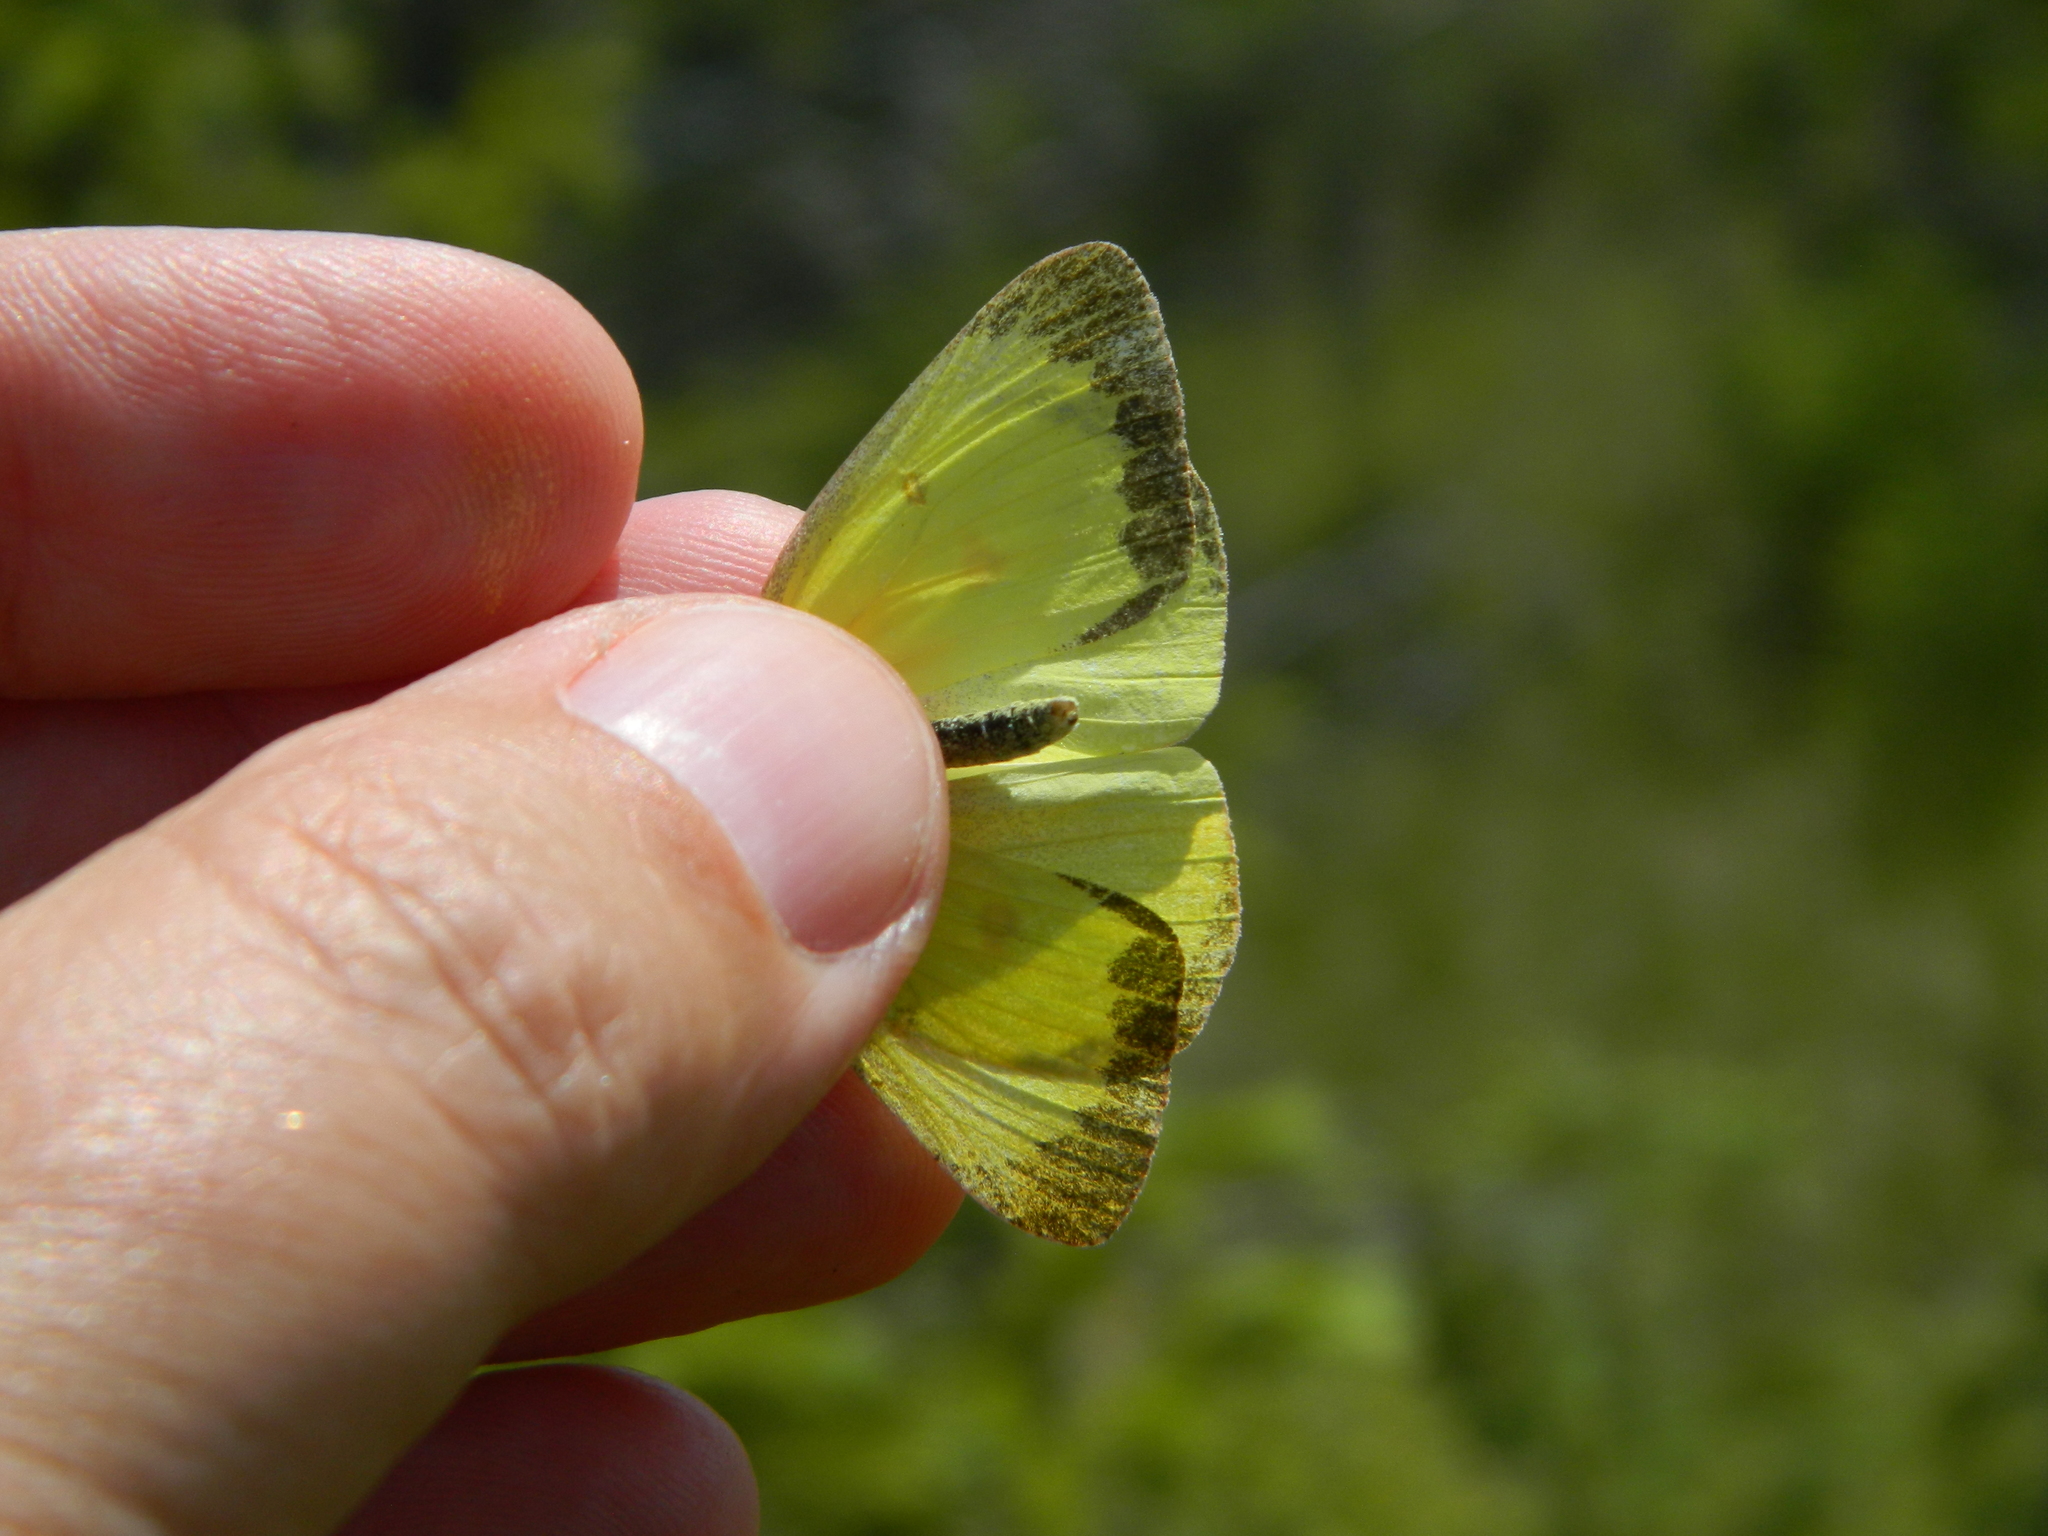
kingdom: Animalia
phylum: Arthropoda
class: Insecta
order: Lepidoptera
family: Pieridae
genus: Colias
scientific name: Colias interior
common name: Pink-edged sulphur
